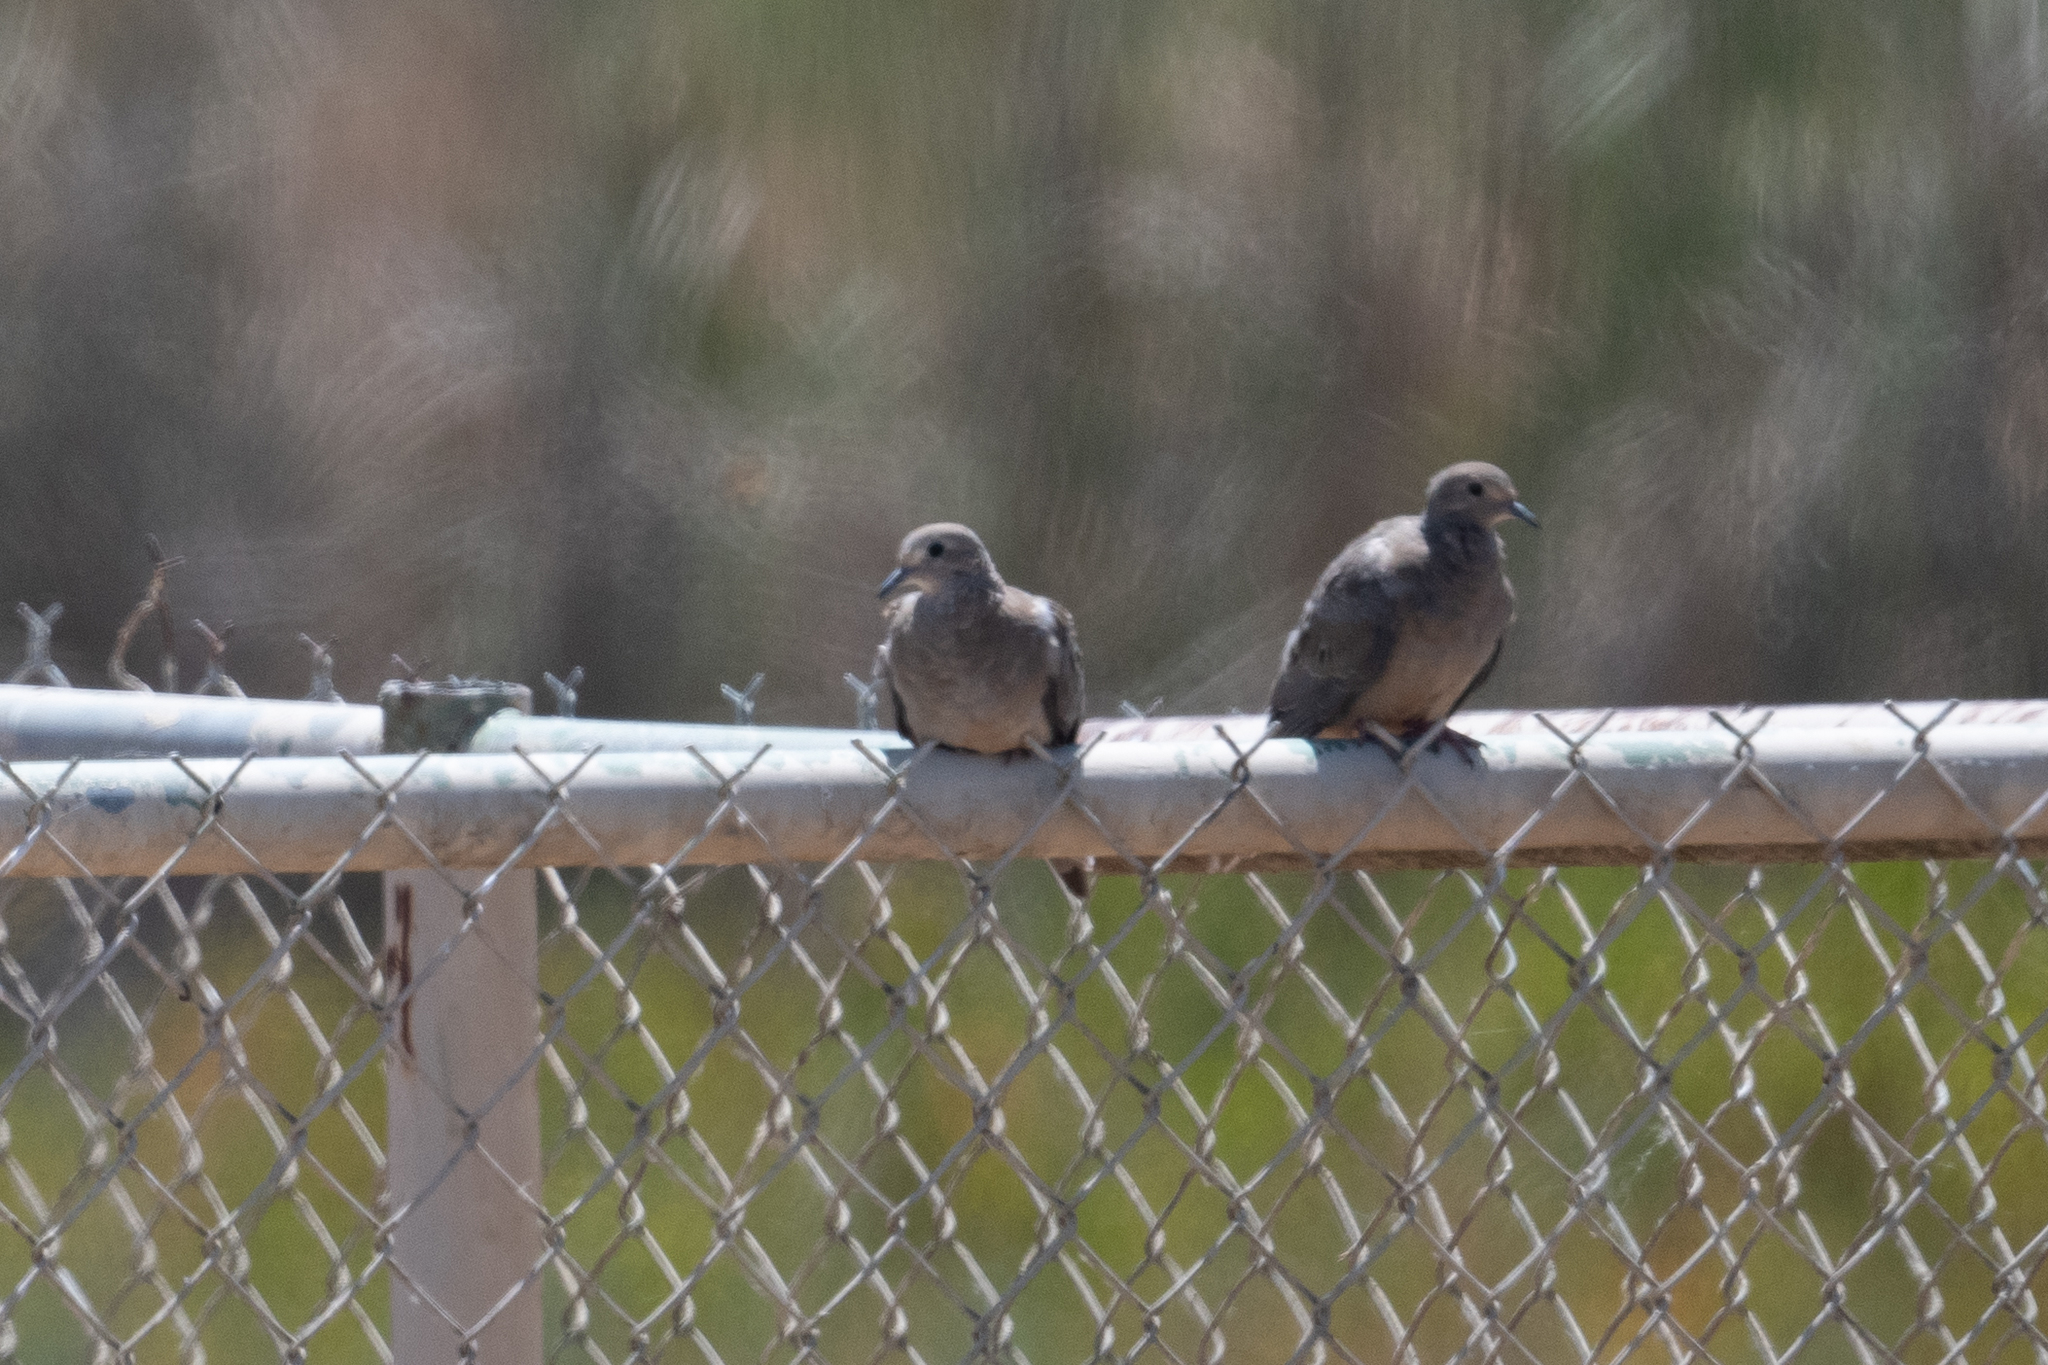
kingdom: Animalia
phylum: Chordata
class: Aves
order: Columbiformes
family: Columbidae
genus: Zenaida
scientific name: Zenaida macroura
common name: Mourning dove
